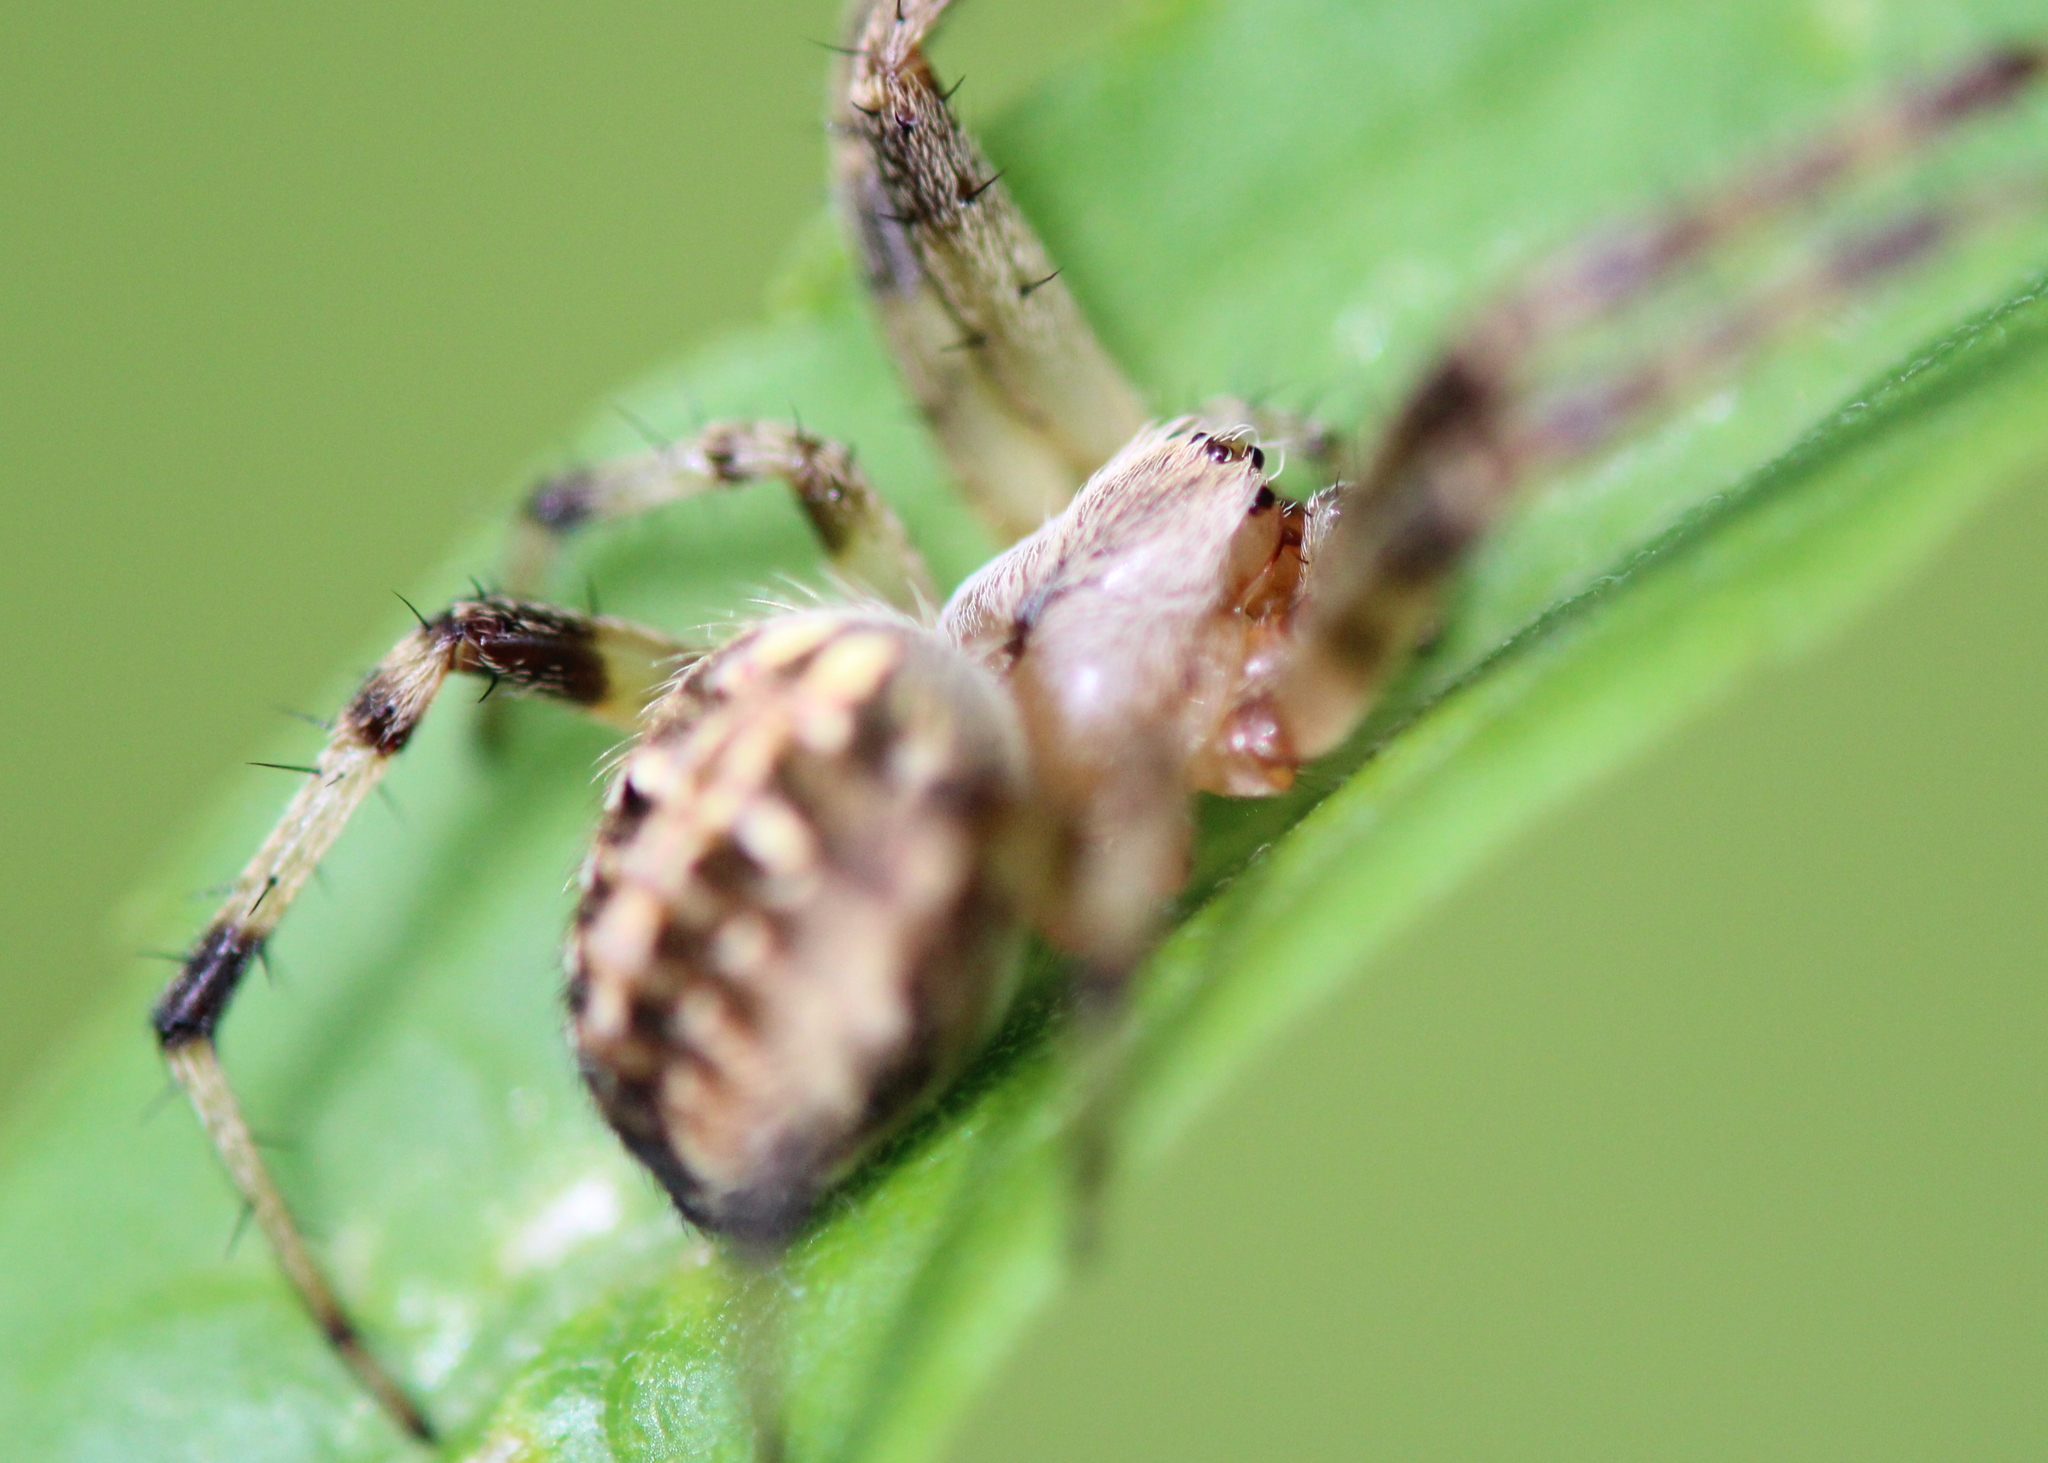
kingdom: Animalia
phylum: Arthropoda
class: Arachnida
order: Araneae
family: Araneidae
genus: Neoscona
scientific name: Neoscona arabesca
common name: Orb weavers
